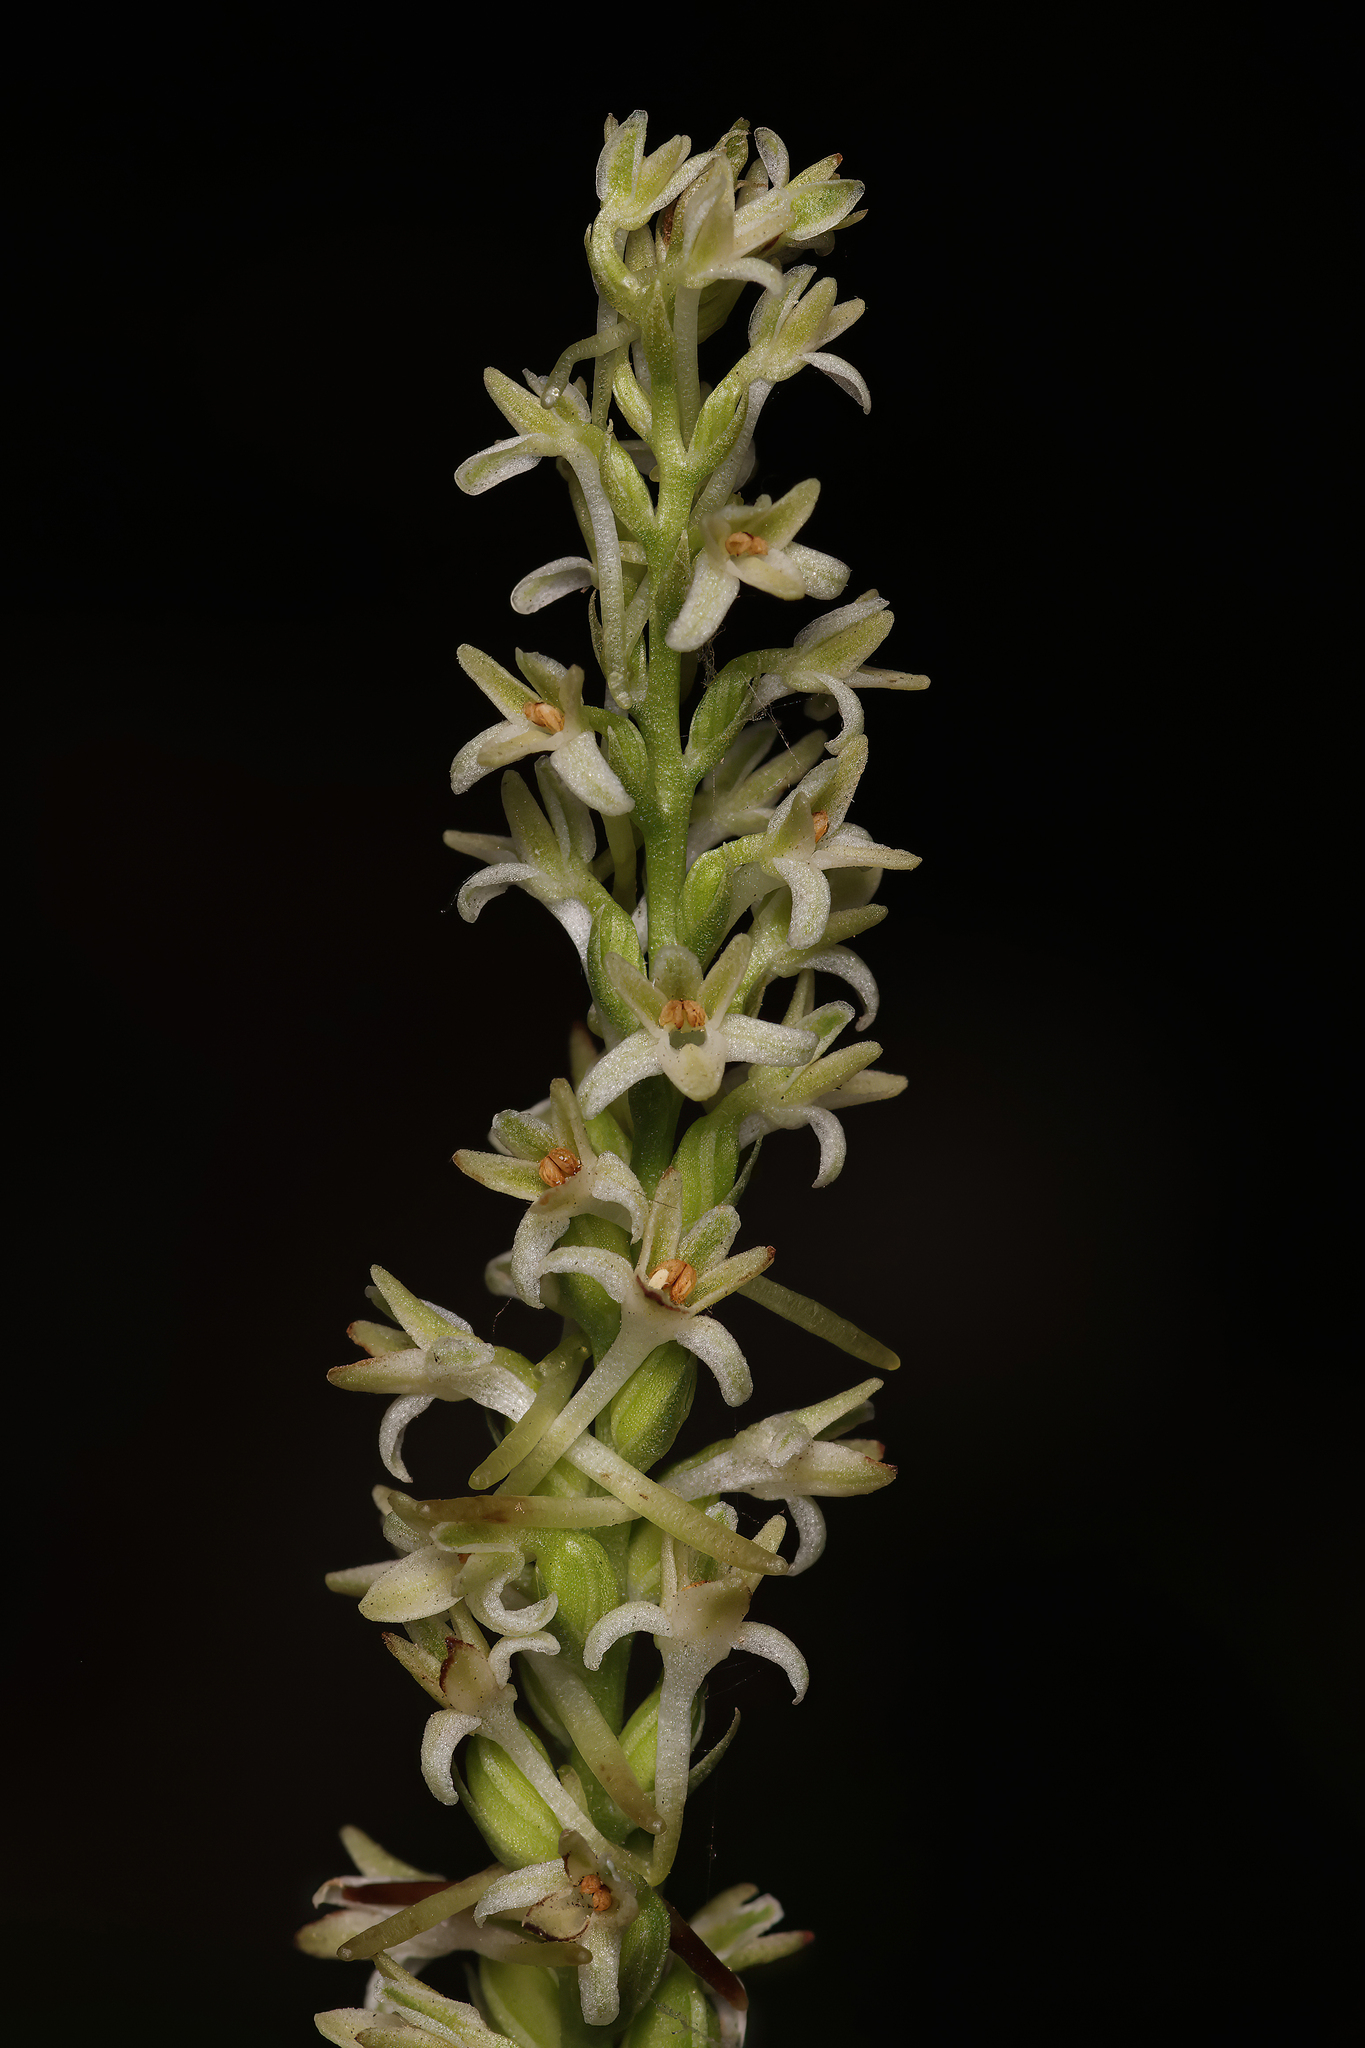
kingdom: Plantae
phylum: Tracheophyta
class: Liliopsida
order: Asparagales
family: Orchidaceae
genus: Platanthera
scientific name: Platanthera transversa
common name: Royal rein orchid
